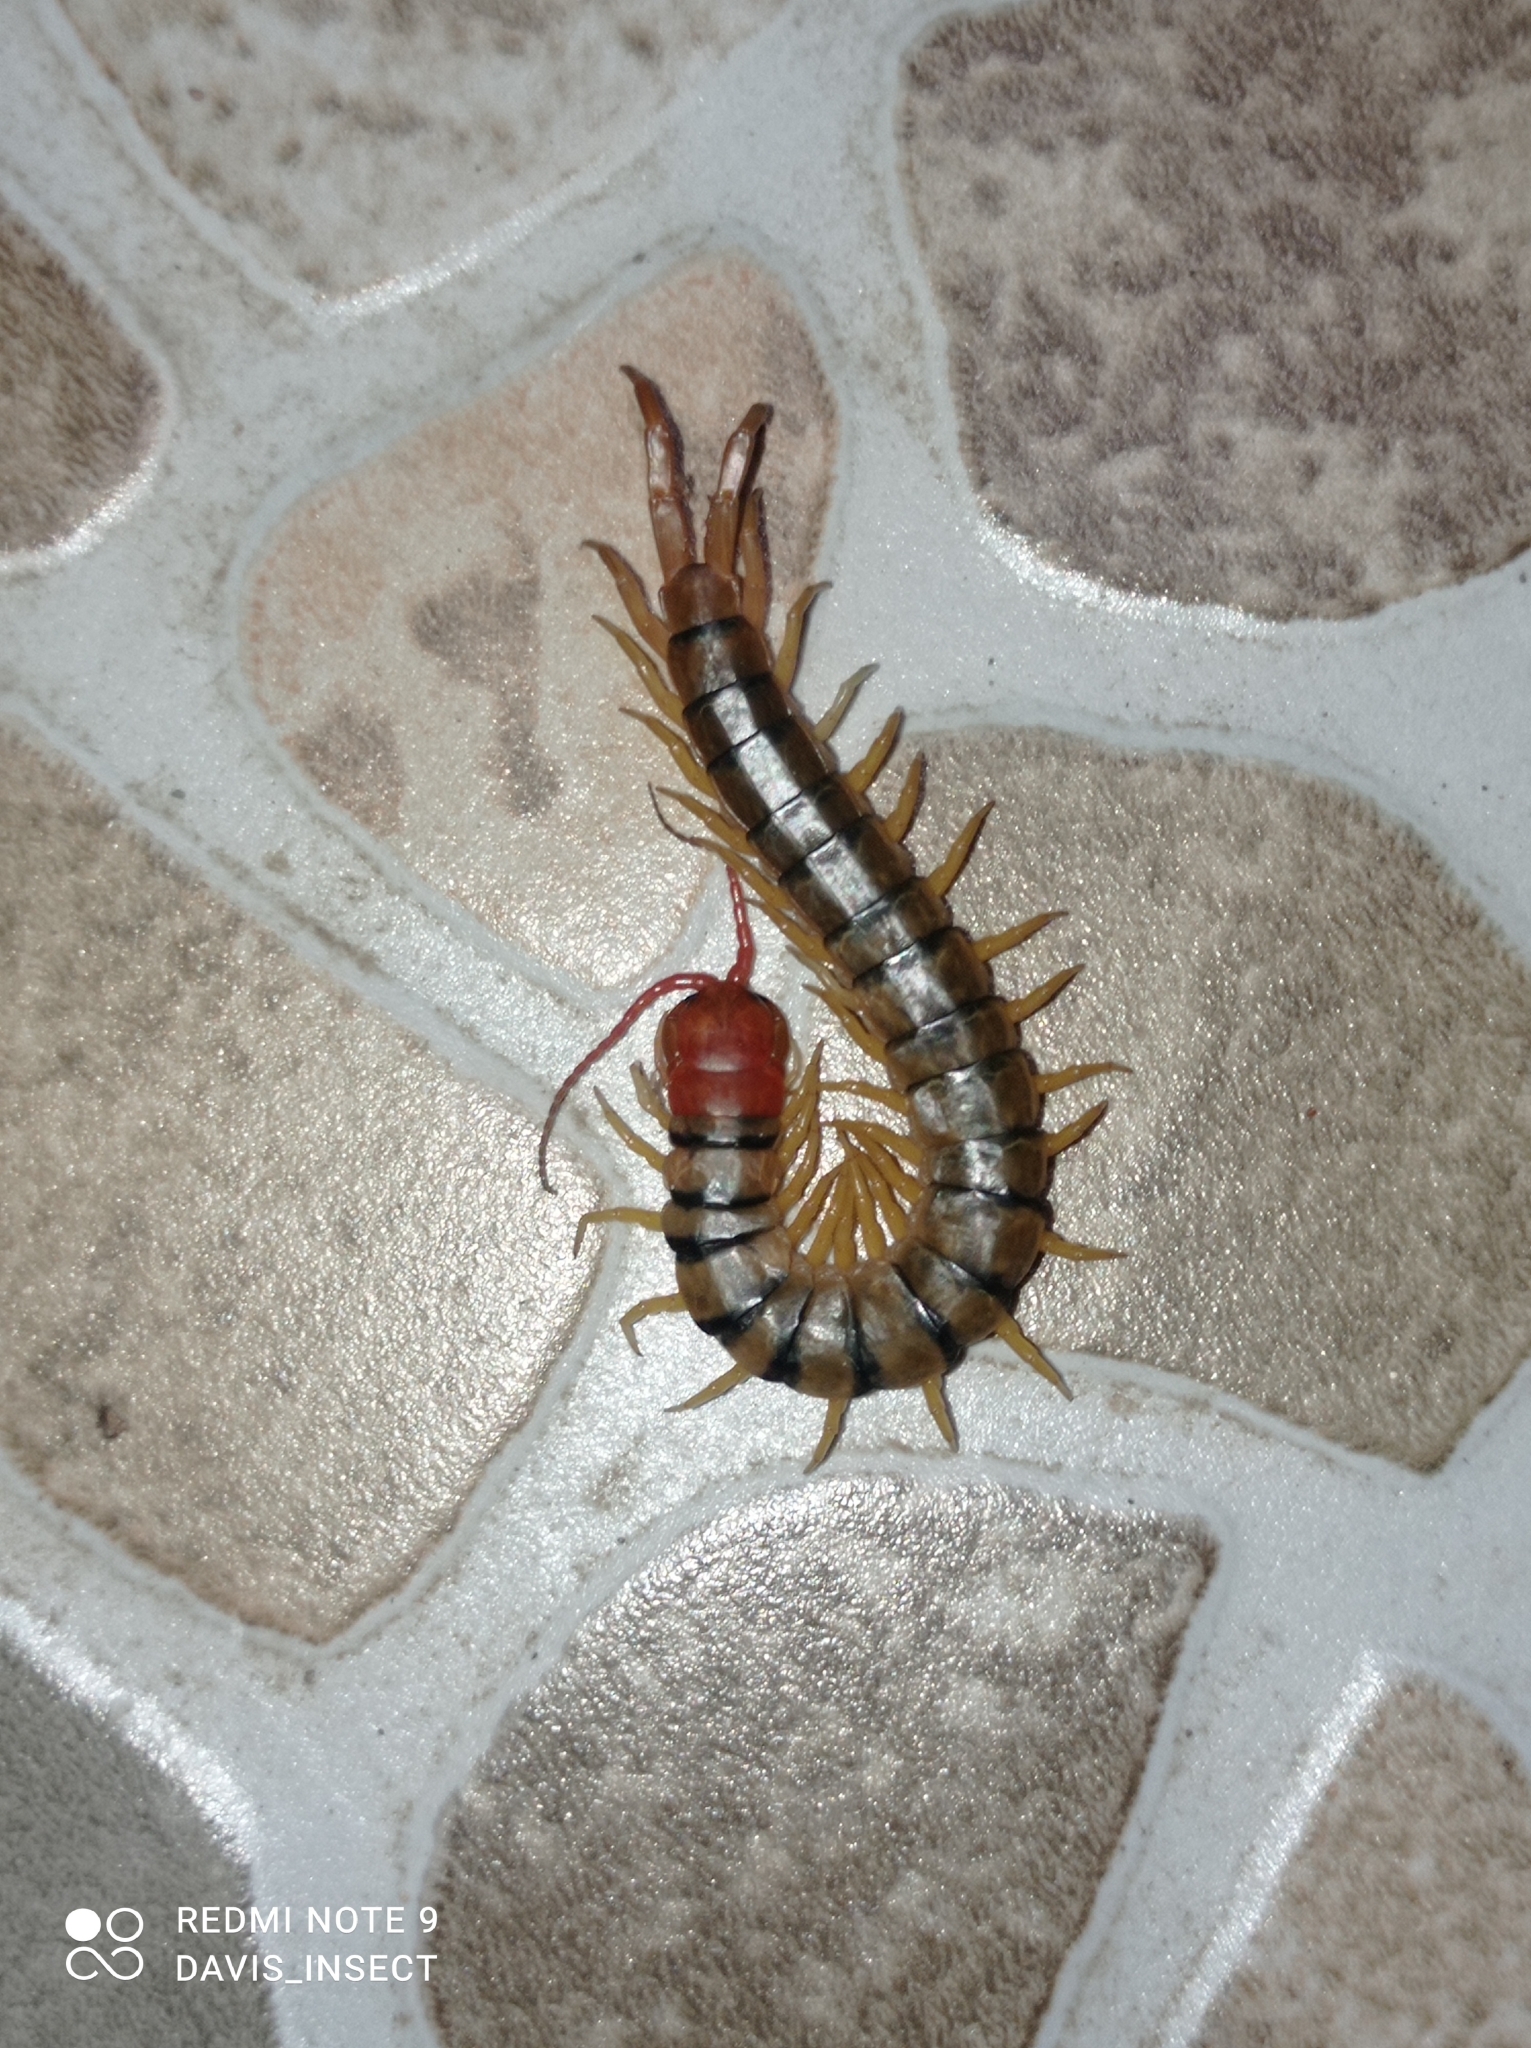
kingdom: Animalia
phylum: Arthropoda
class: Chilopoda
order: Scolopendromorpha
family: Scolopendridae
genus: Scolopendra
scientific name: Scolopendra morsitans
